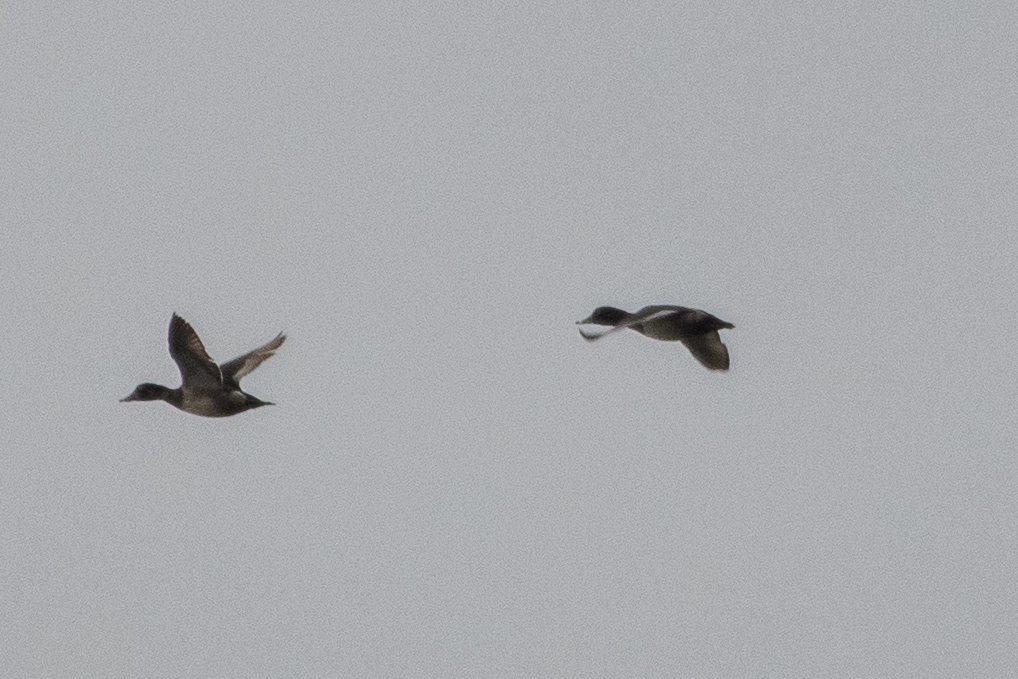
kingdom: Animalia
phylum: Chordata
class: Aves
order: Anseriformes
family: Anatidae
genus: Aythya
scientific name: Aythya collaris
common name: Ring-necked duck
